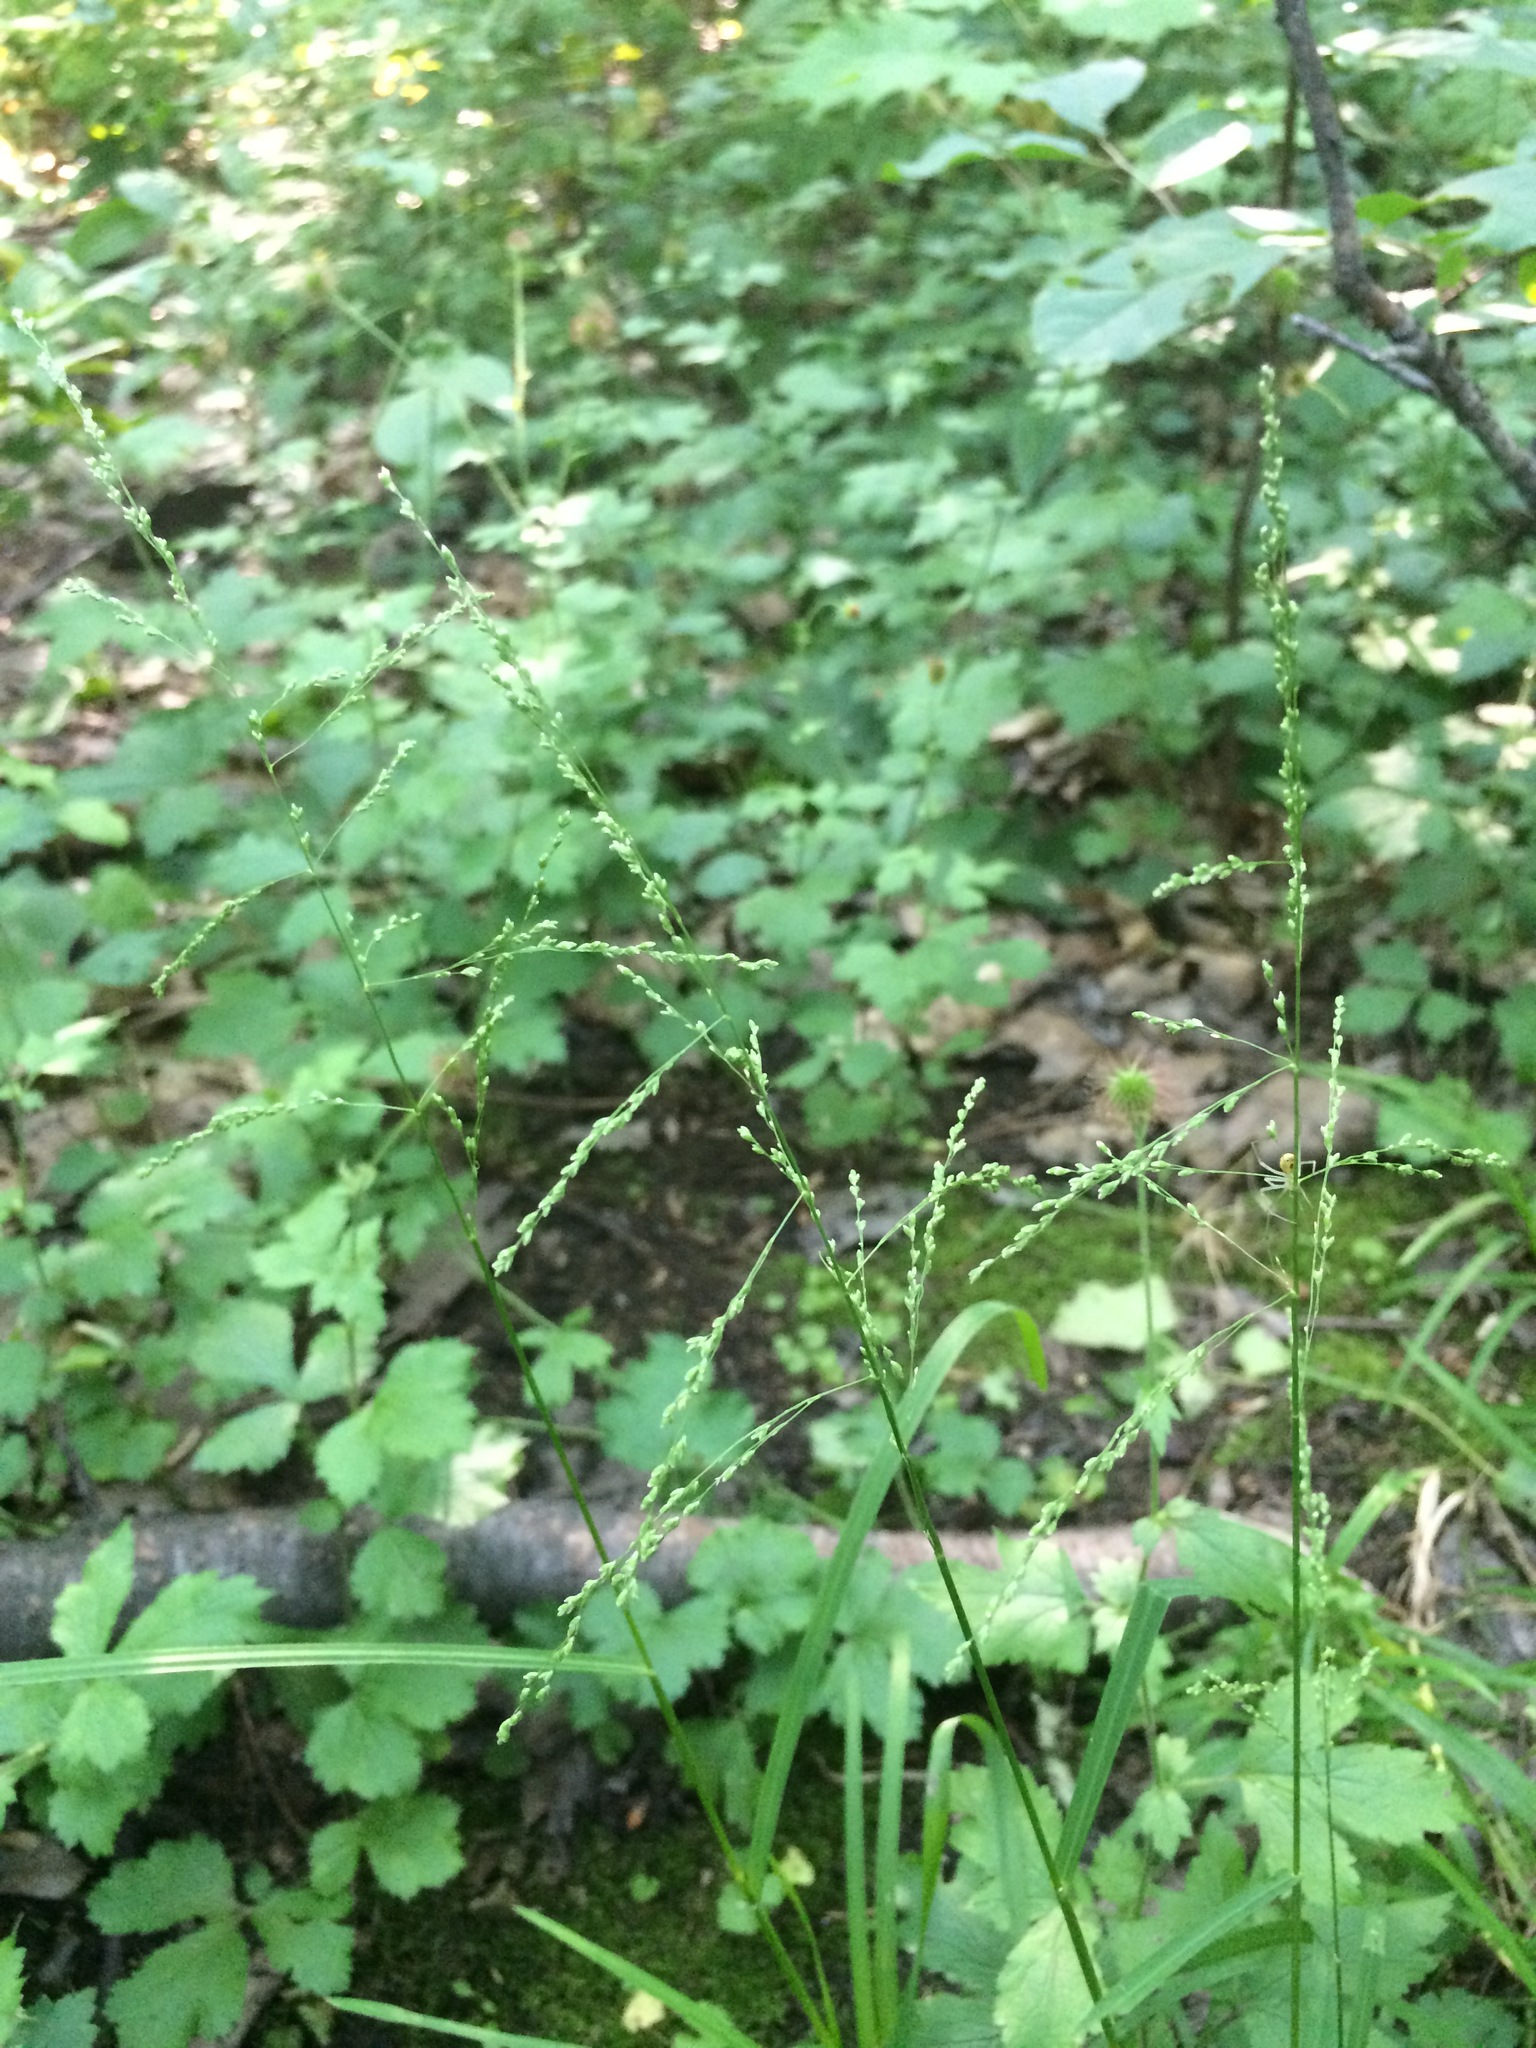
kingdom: Plantae
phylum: Tracheophyta
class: Liliopsida
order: Poales
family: Poaceae
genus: Glyceria
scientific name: Glyceria striata
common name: Fowl manna grass
